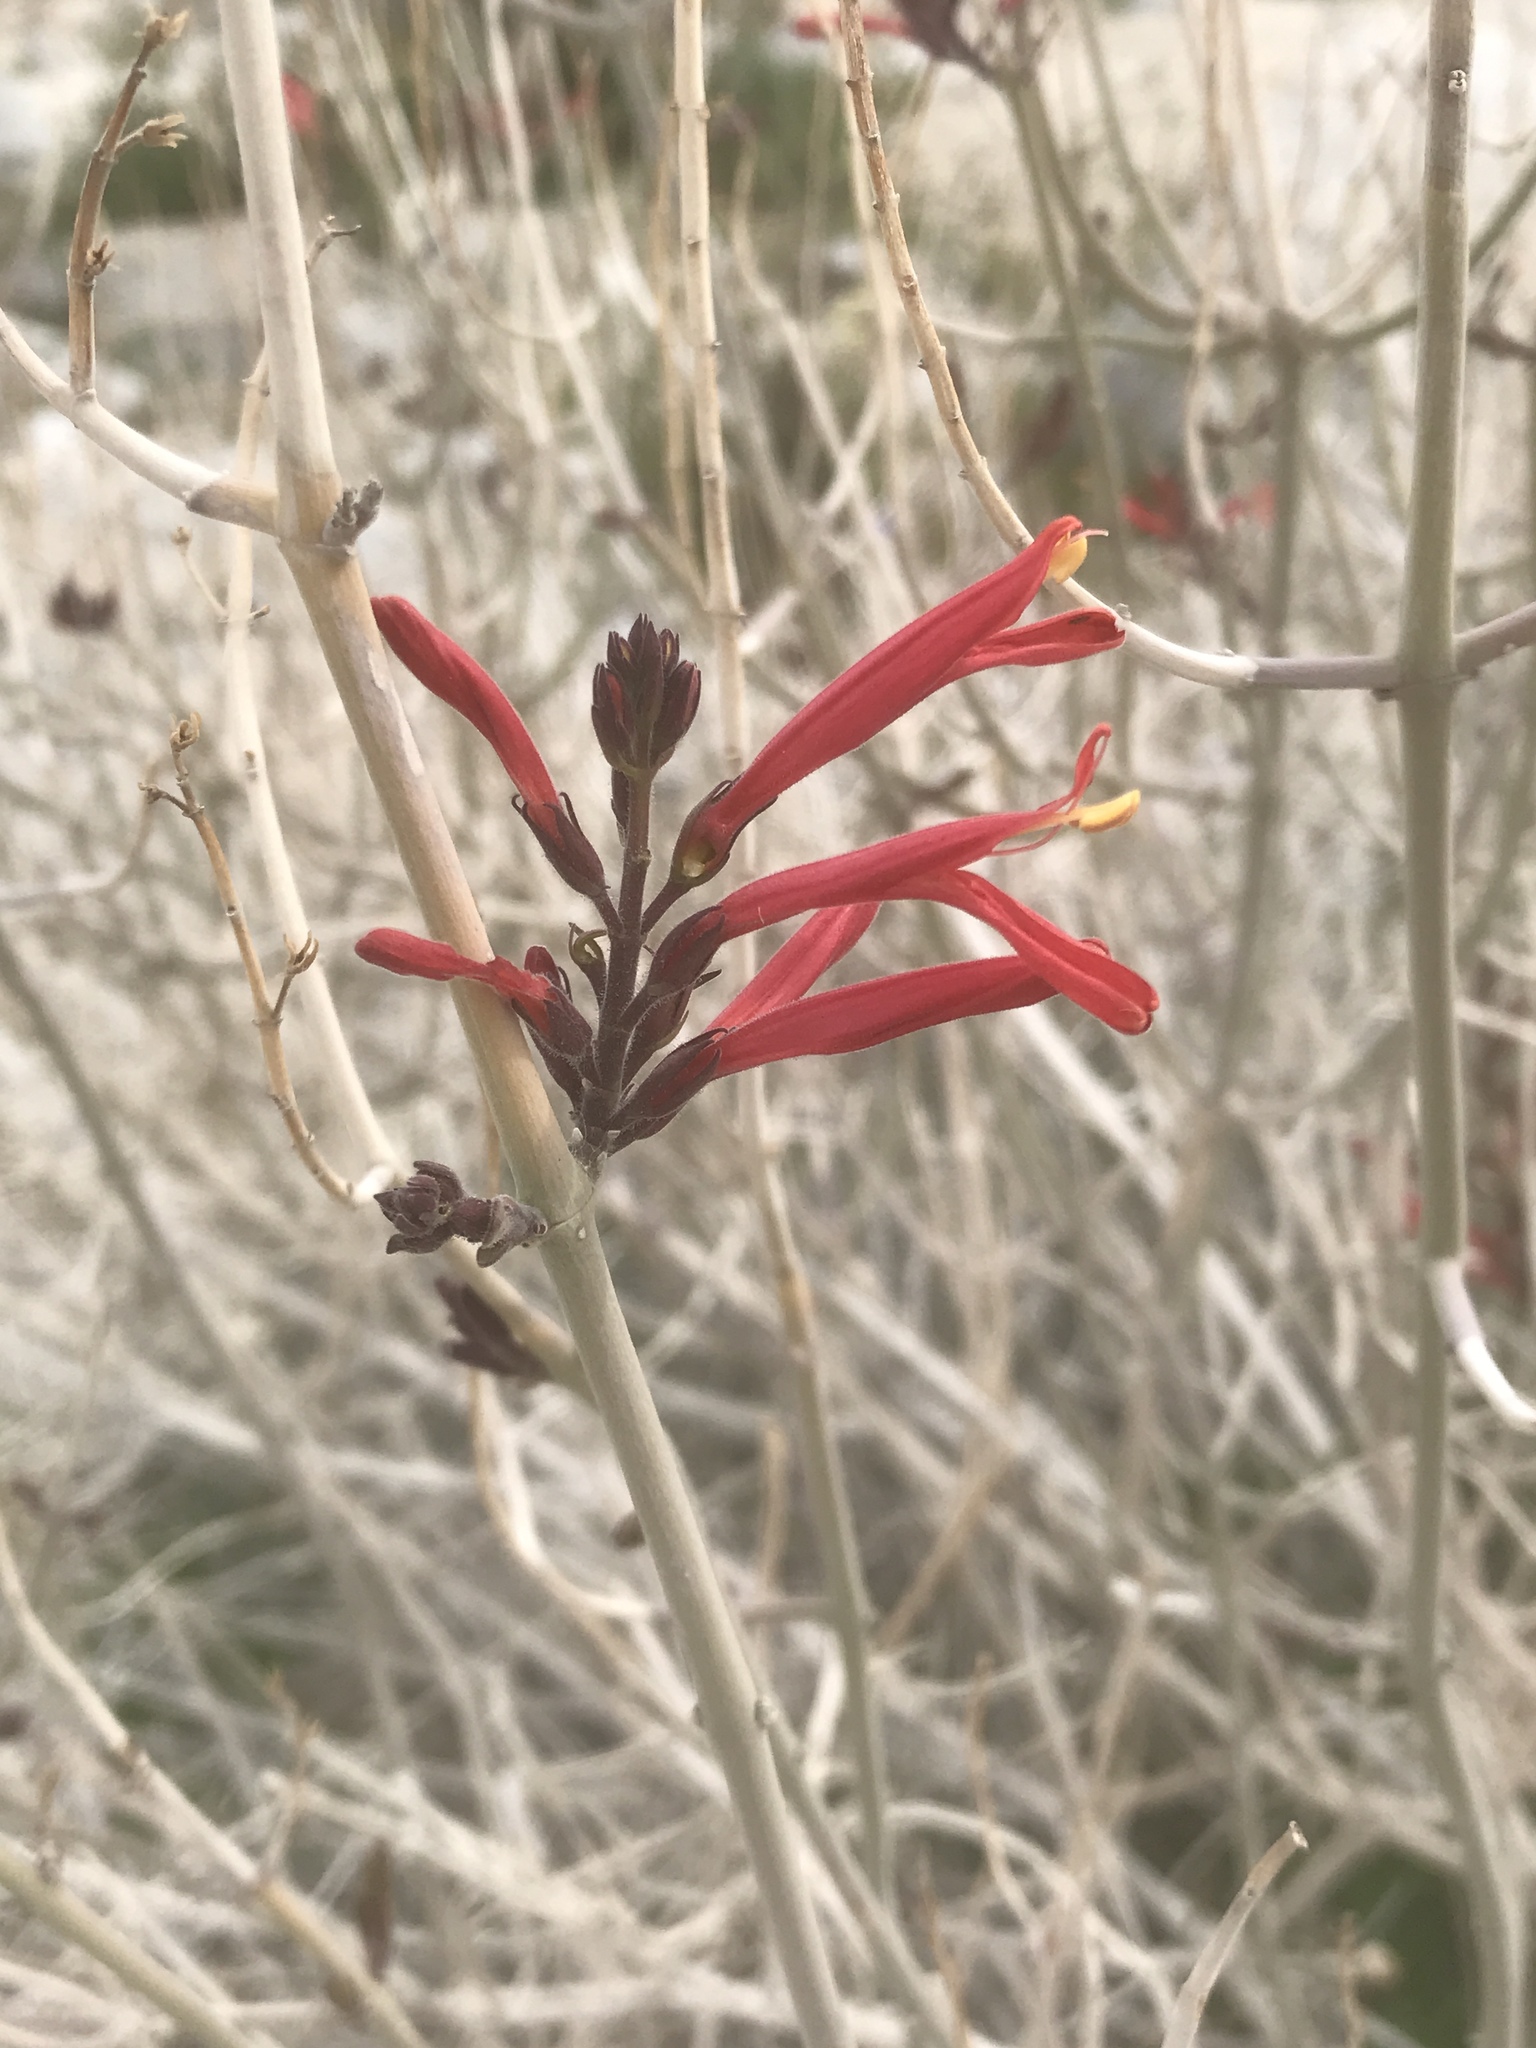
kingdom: Plantae
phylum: Tracheophyta
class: Magnoliopsida
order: Lamiales
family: Acanthaceae
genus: Justicia
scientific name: Justicia californica
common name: Chuparosa-honeysuckle
